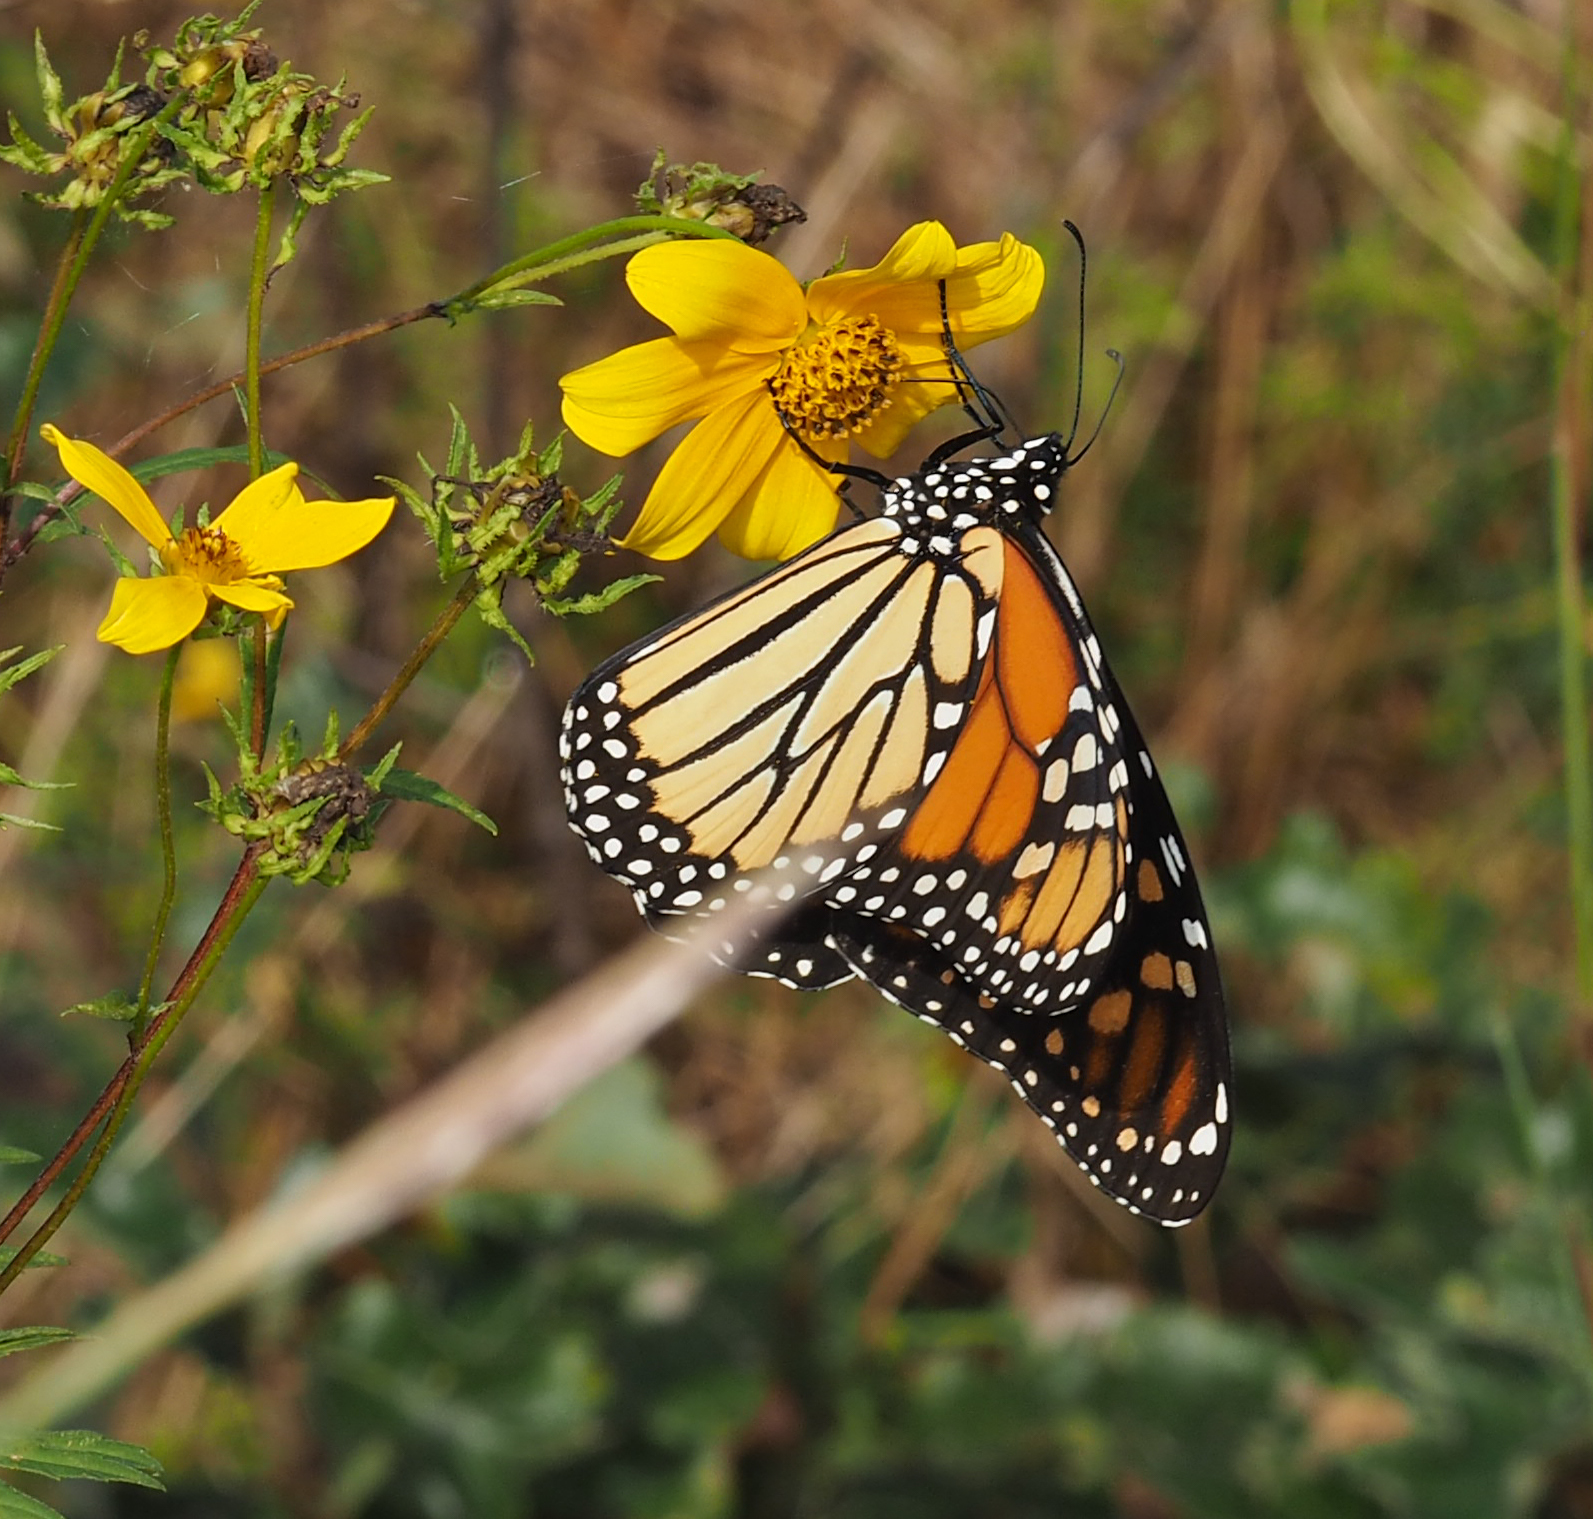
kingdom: Animalia
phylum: Arthropoda
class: Insecta
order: Lepidoptera
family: Nymphalidae
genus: Danaus
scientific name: Danaus plexippus
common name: Monarch
